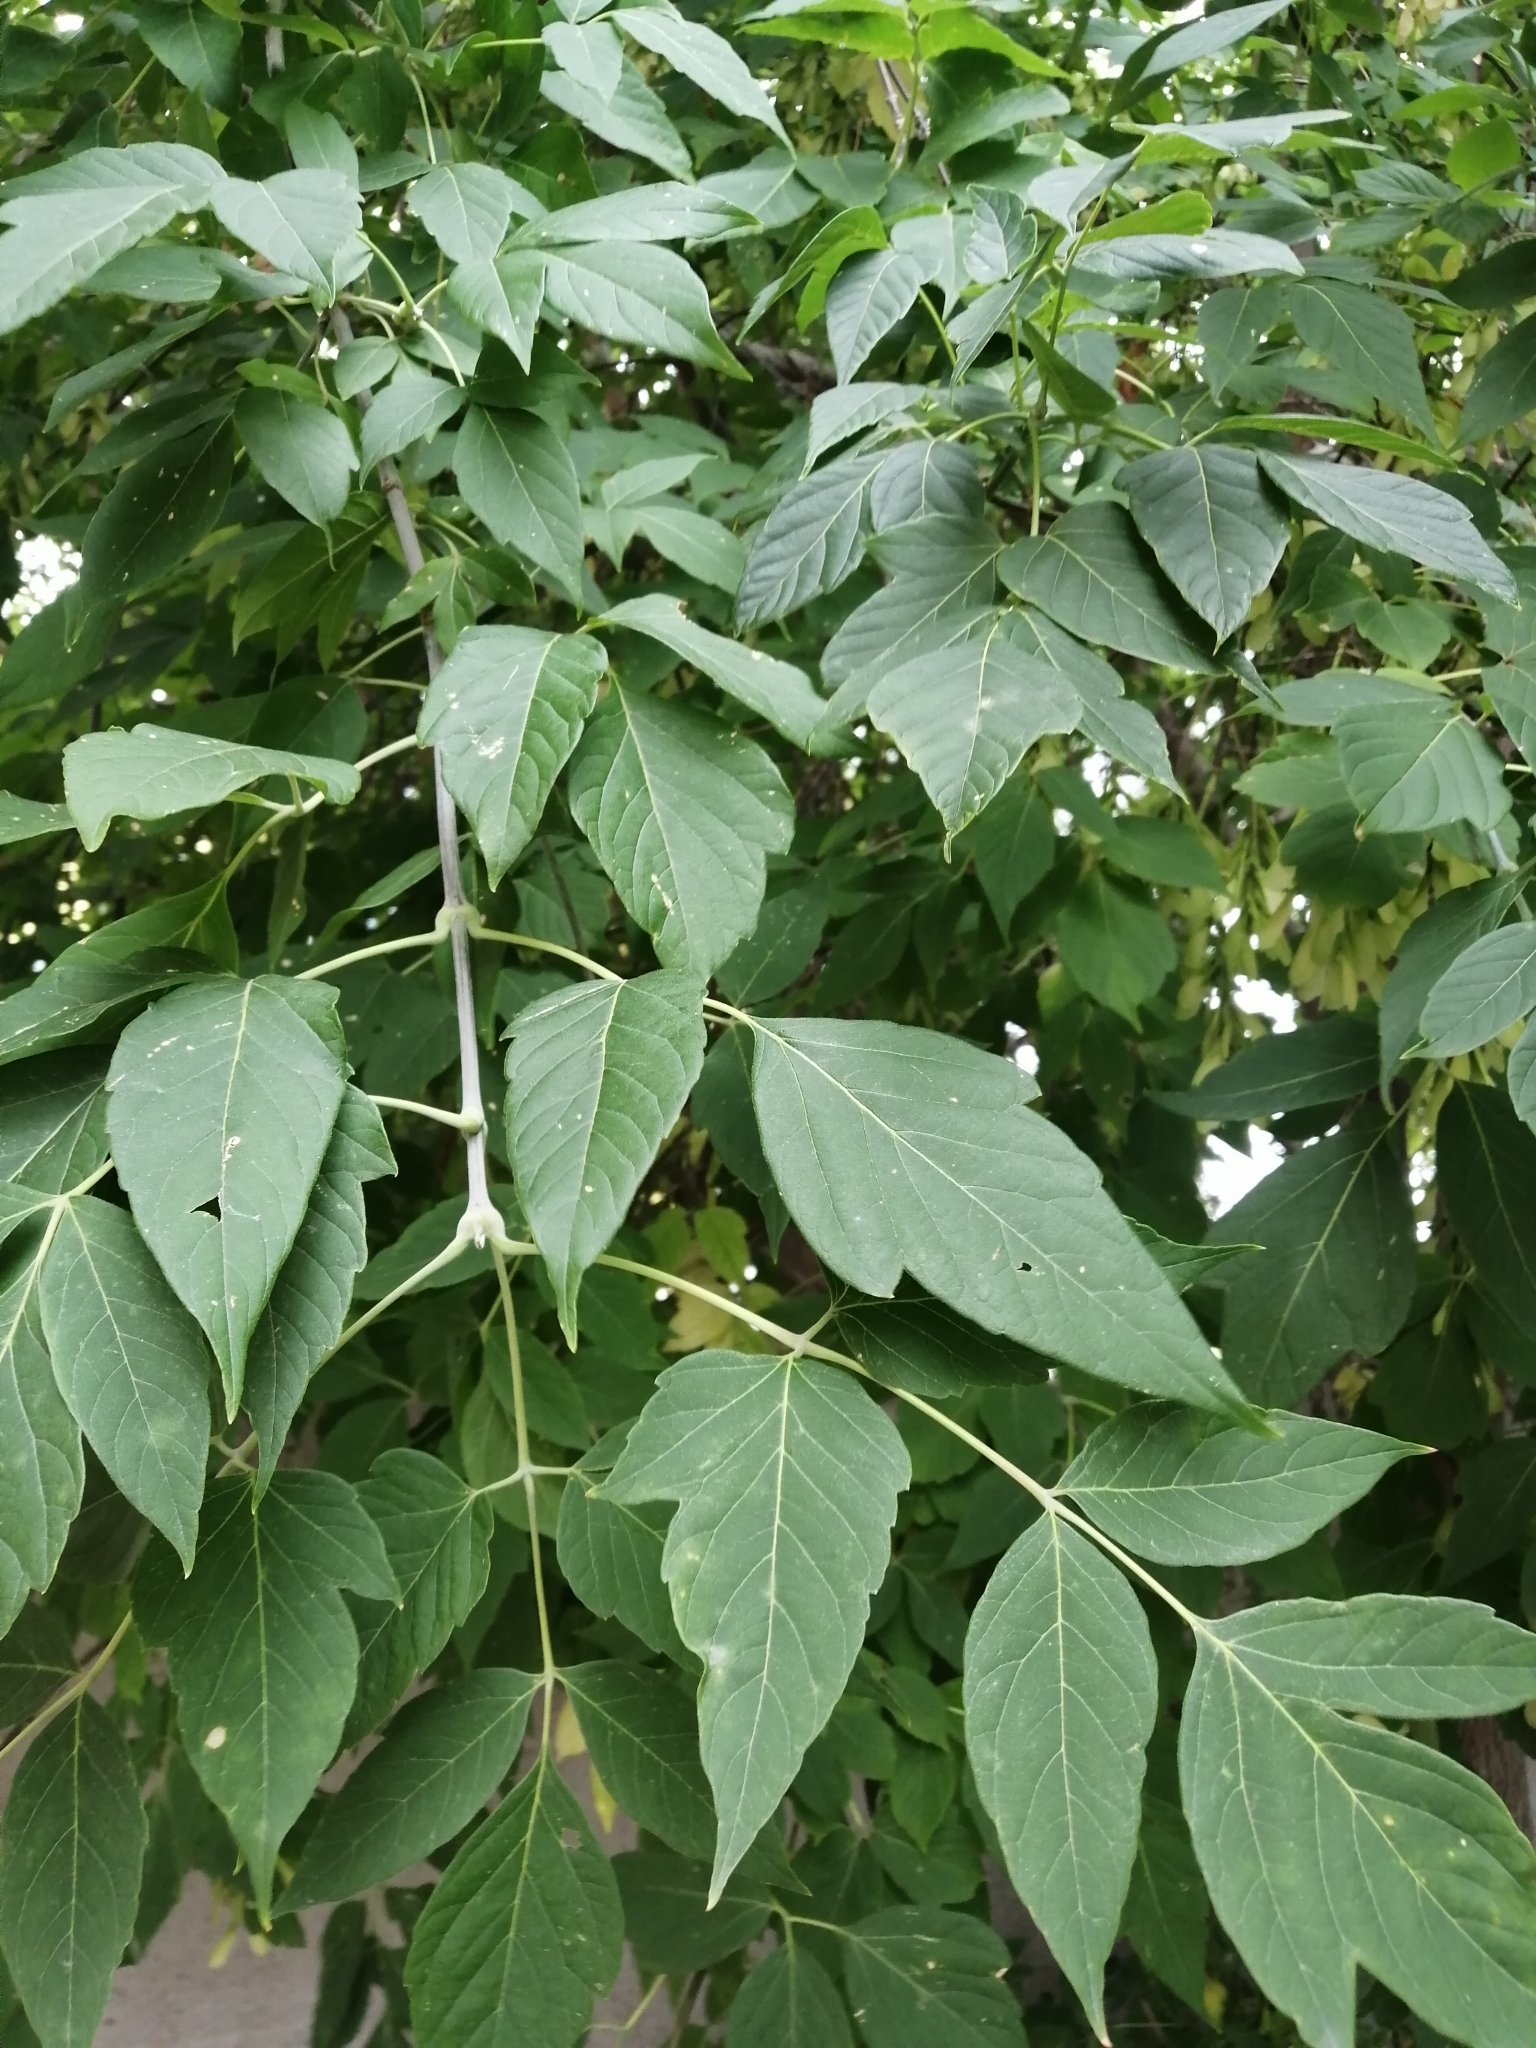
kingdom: Plantae
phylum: Tracheophyta
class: Magnoliopsida
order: Sapindales
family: Sapindaceae
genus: Acer
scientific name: Acer negundo
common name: Ashleaf maple
